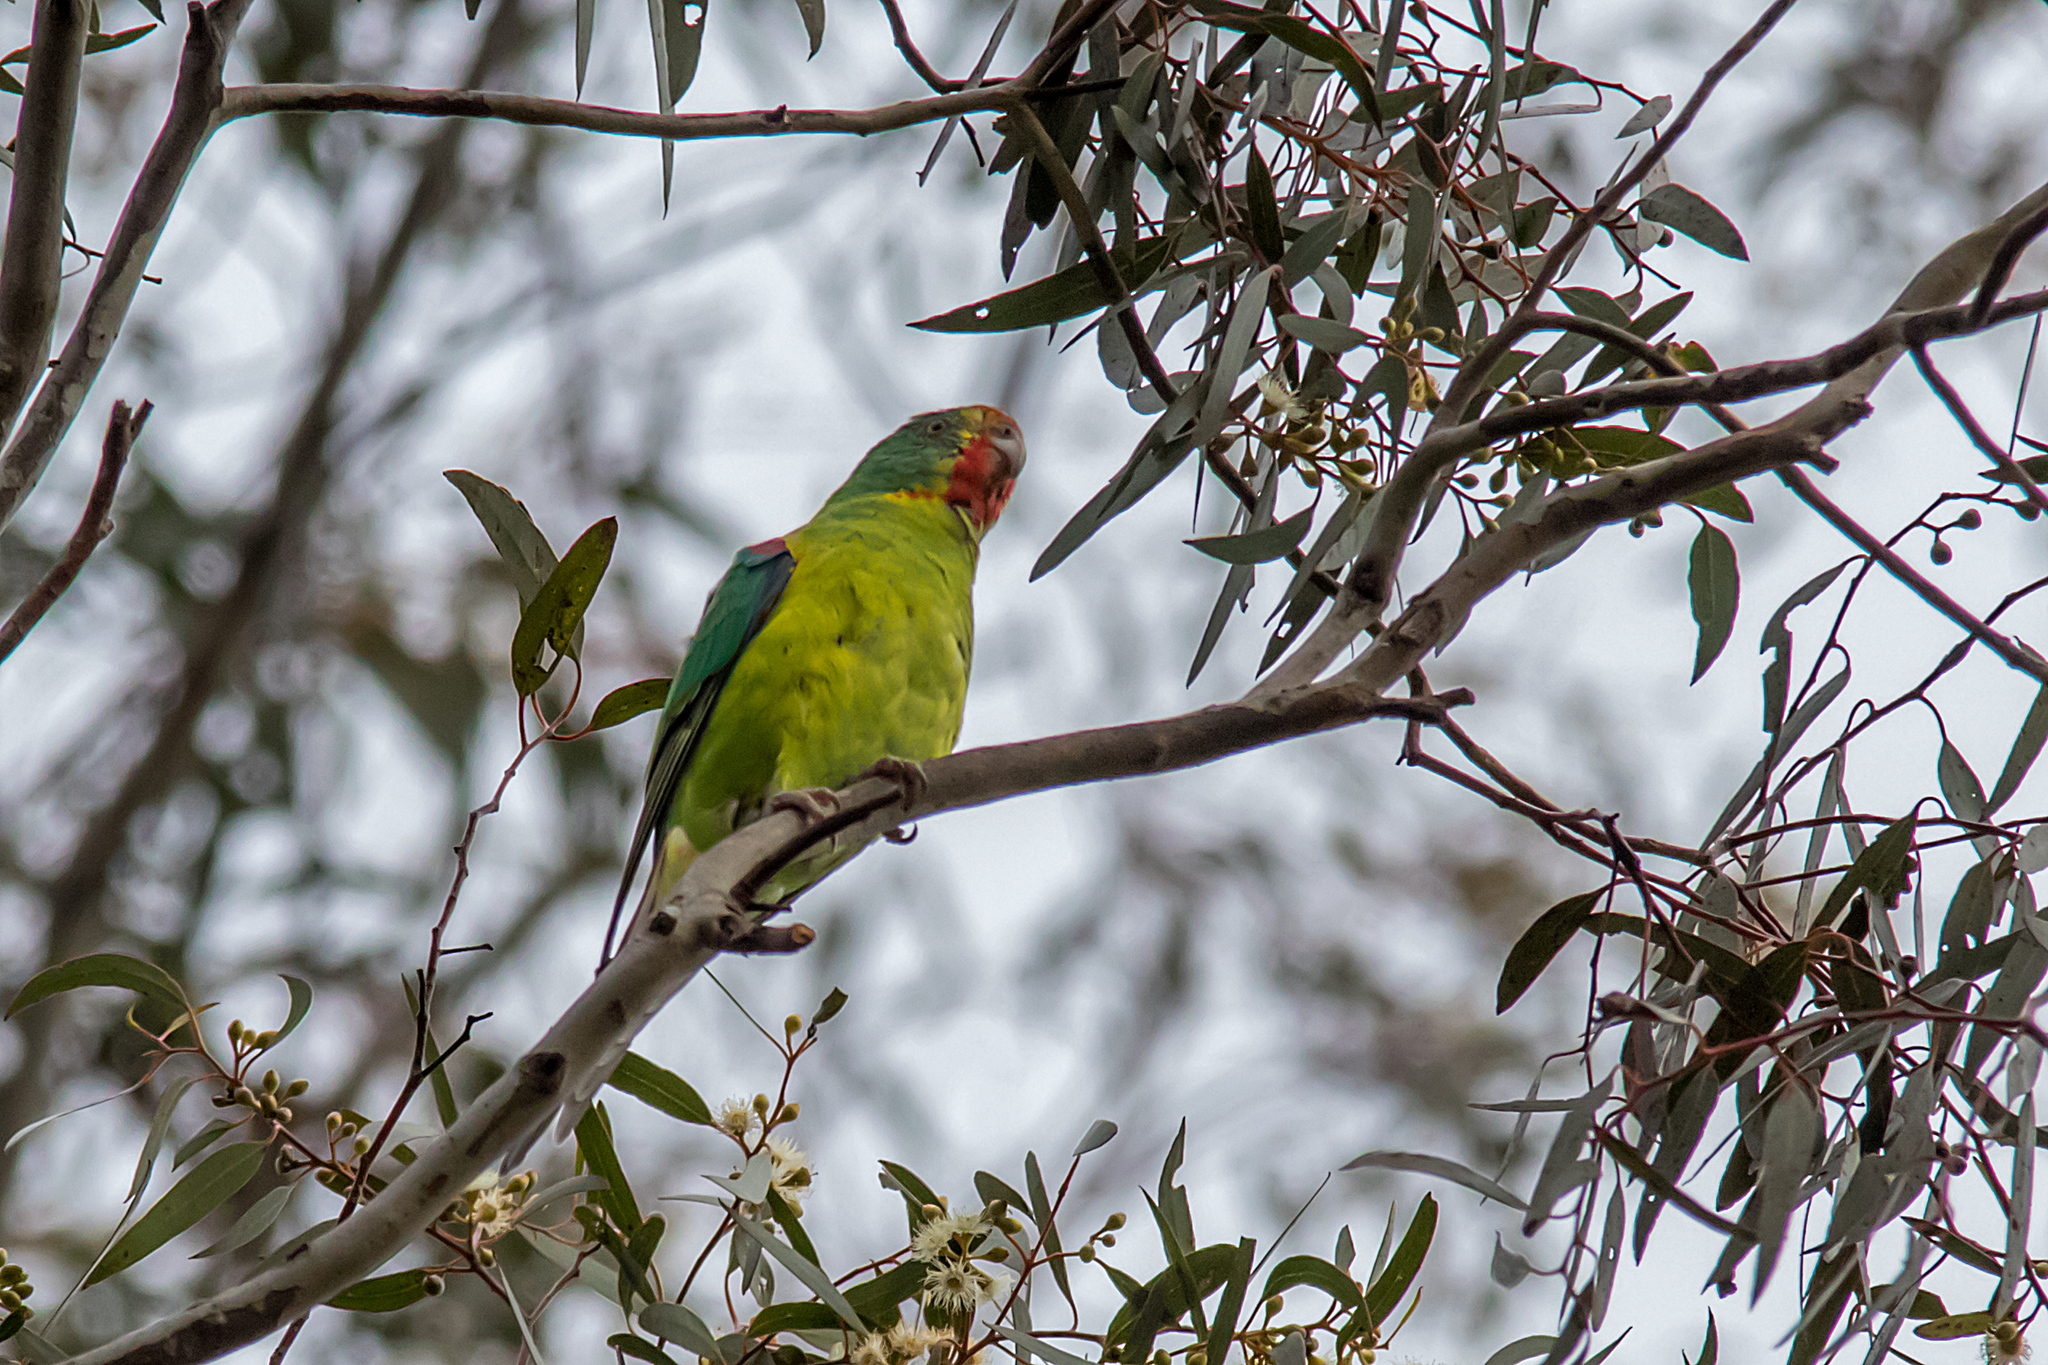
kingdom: Animalia
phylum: Chordata
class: Aves
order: Psittaciformes
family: Psittacidae
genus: Lathamus
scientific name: Lathamus discolor
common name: Swift parrot
